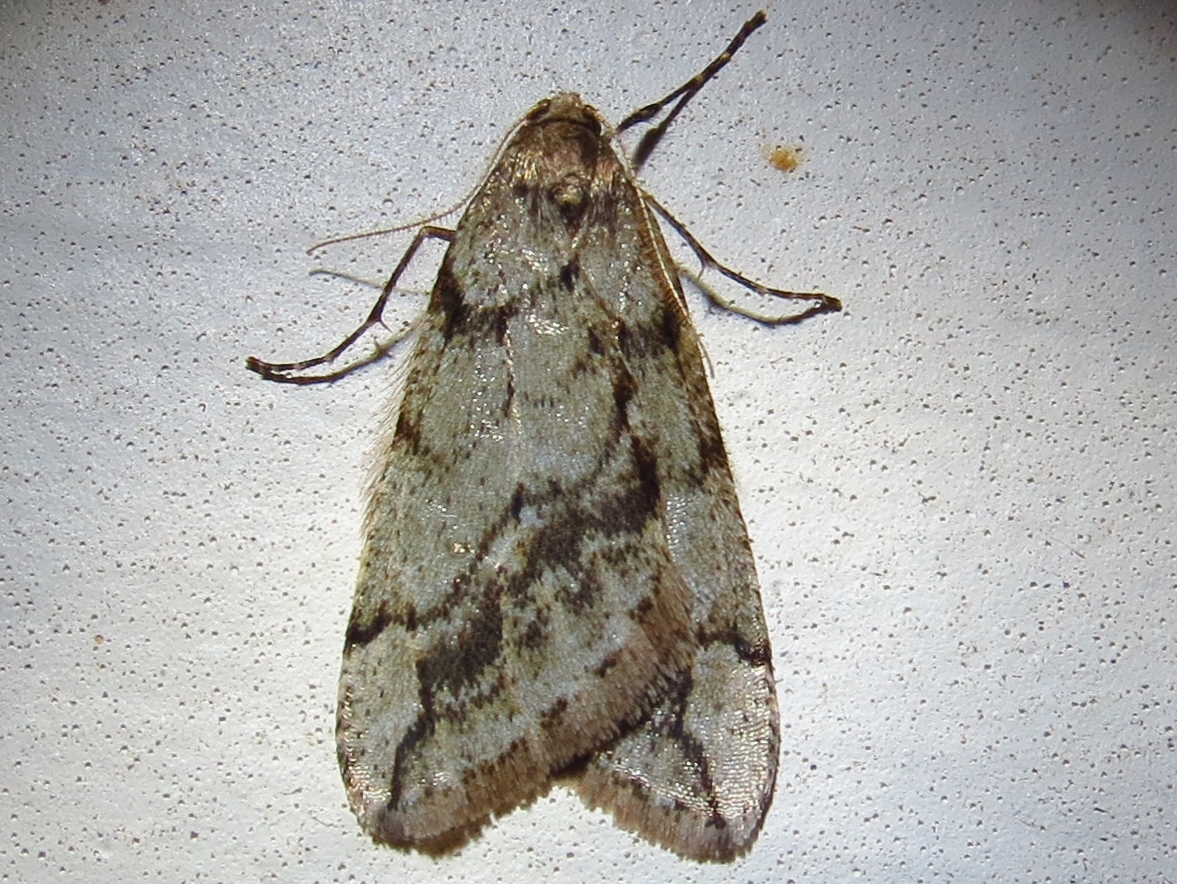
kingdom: Animalia
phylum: Arthropoda
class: Insecta
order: Lepidoptera
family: Geometridae
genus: Paleacrita
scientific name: Paleacrita vernata
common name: Spring cankerworm
